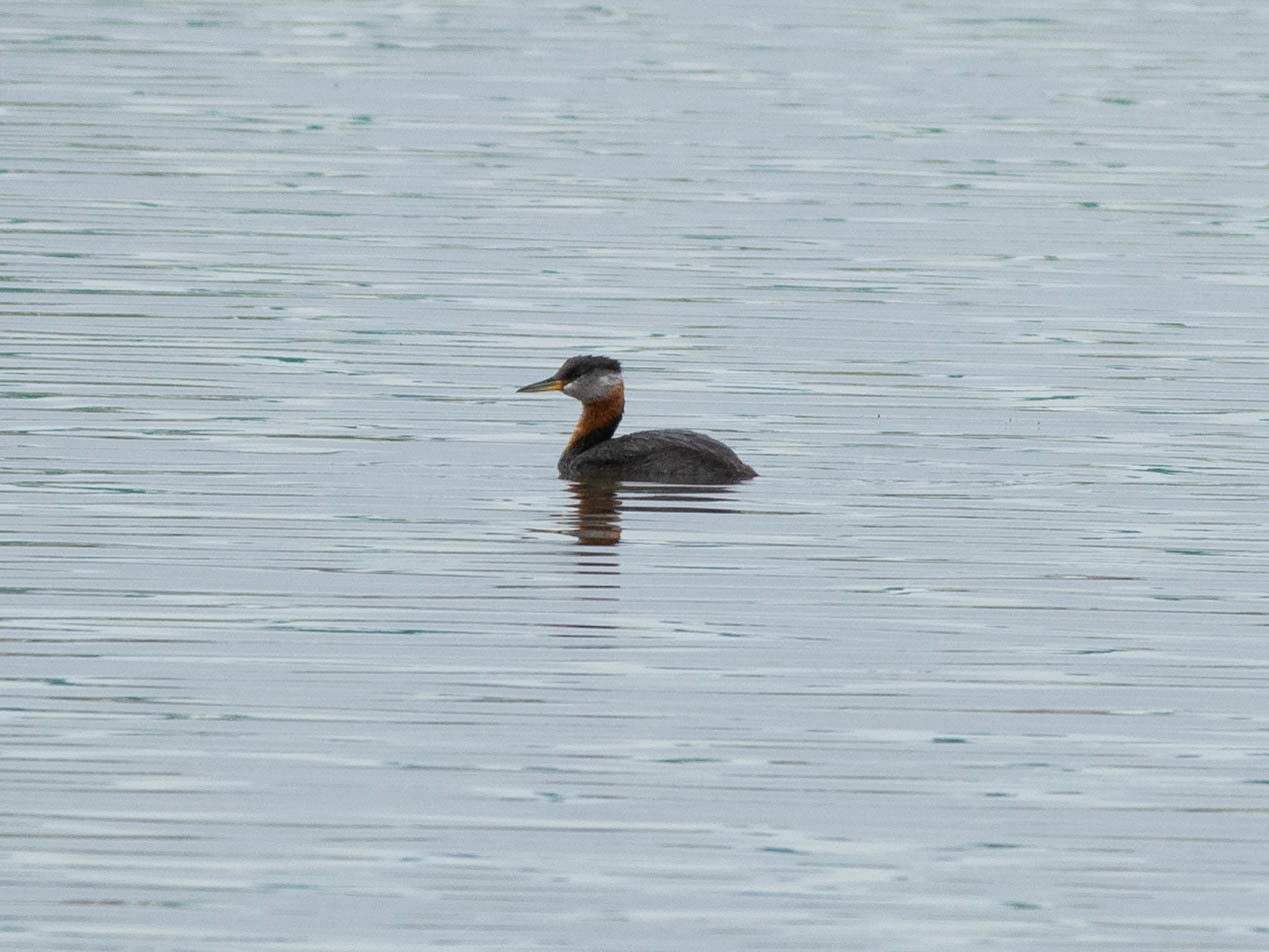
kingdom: Animalia
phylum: Chordata
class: Aves
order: Podicipediformes
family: Podicipedidae
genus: Podiceps
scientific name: Podiceps grisegena
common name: Red-necked grebe
